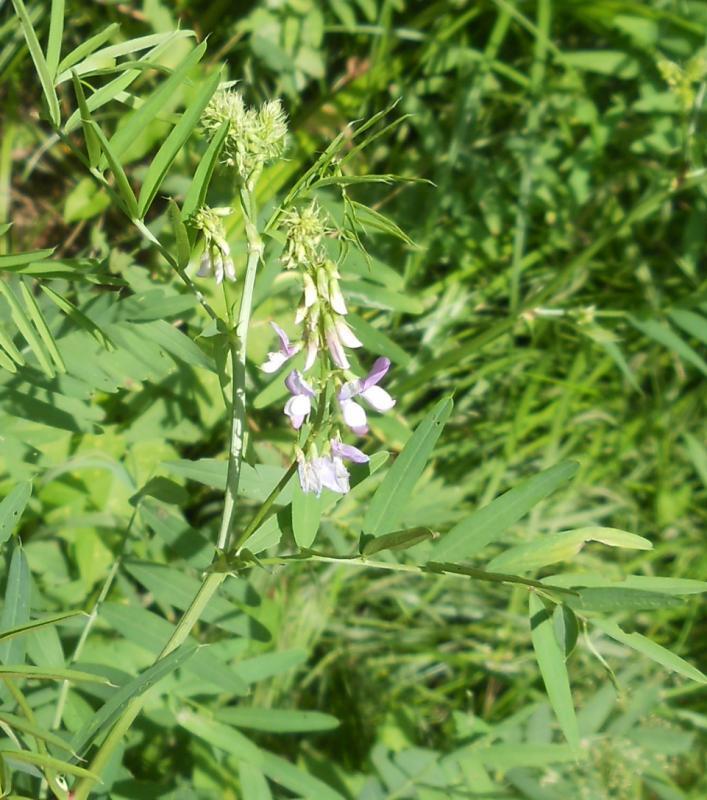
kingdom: Plantae
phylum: Tracheophyta
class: Magnoliopsida
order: Fabales
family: Fabaceae
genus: Galega
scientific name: Galega officinalis
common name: Goat's-rue
